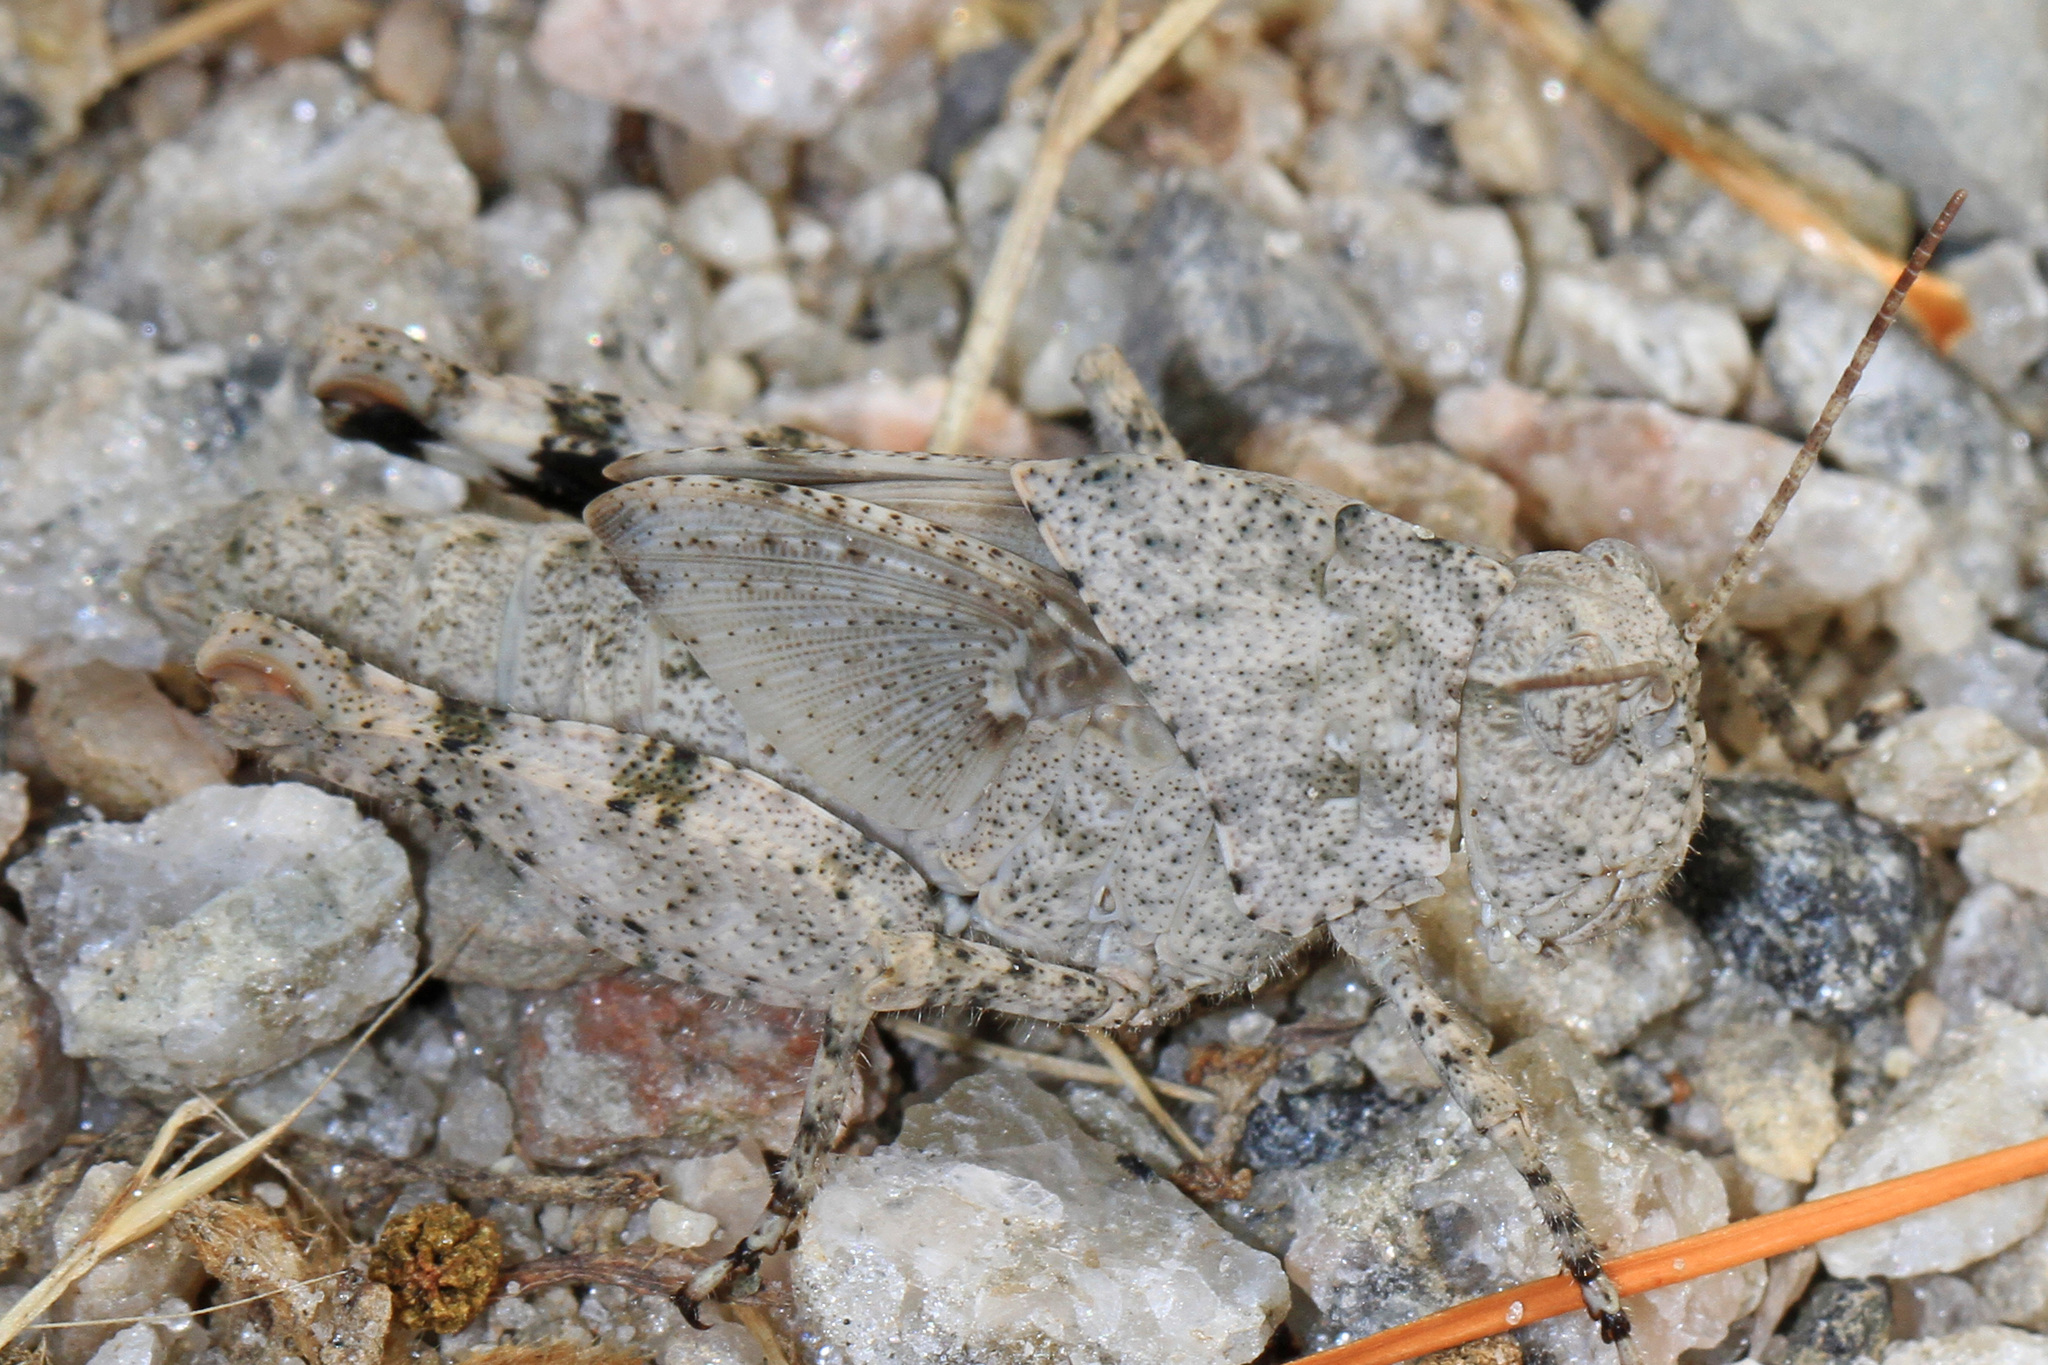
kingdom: Animalia
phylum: Arthropoda
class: Insecta
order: Orthoptera
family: Acrididae
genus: Dissosteira
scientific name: Dissosteira carolina
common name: Carolina grasshopper
